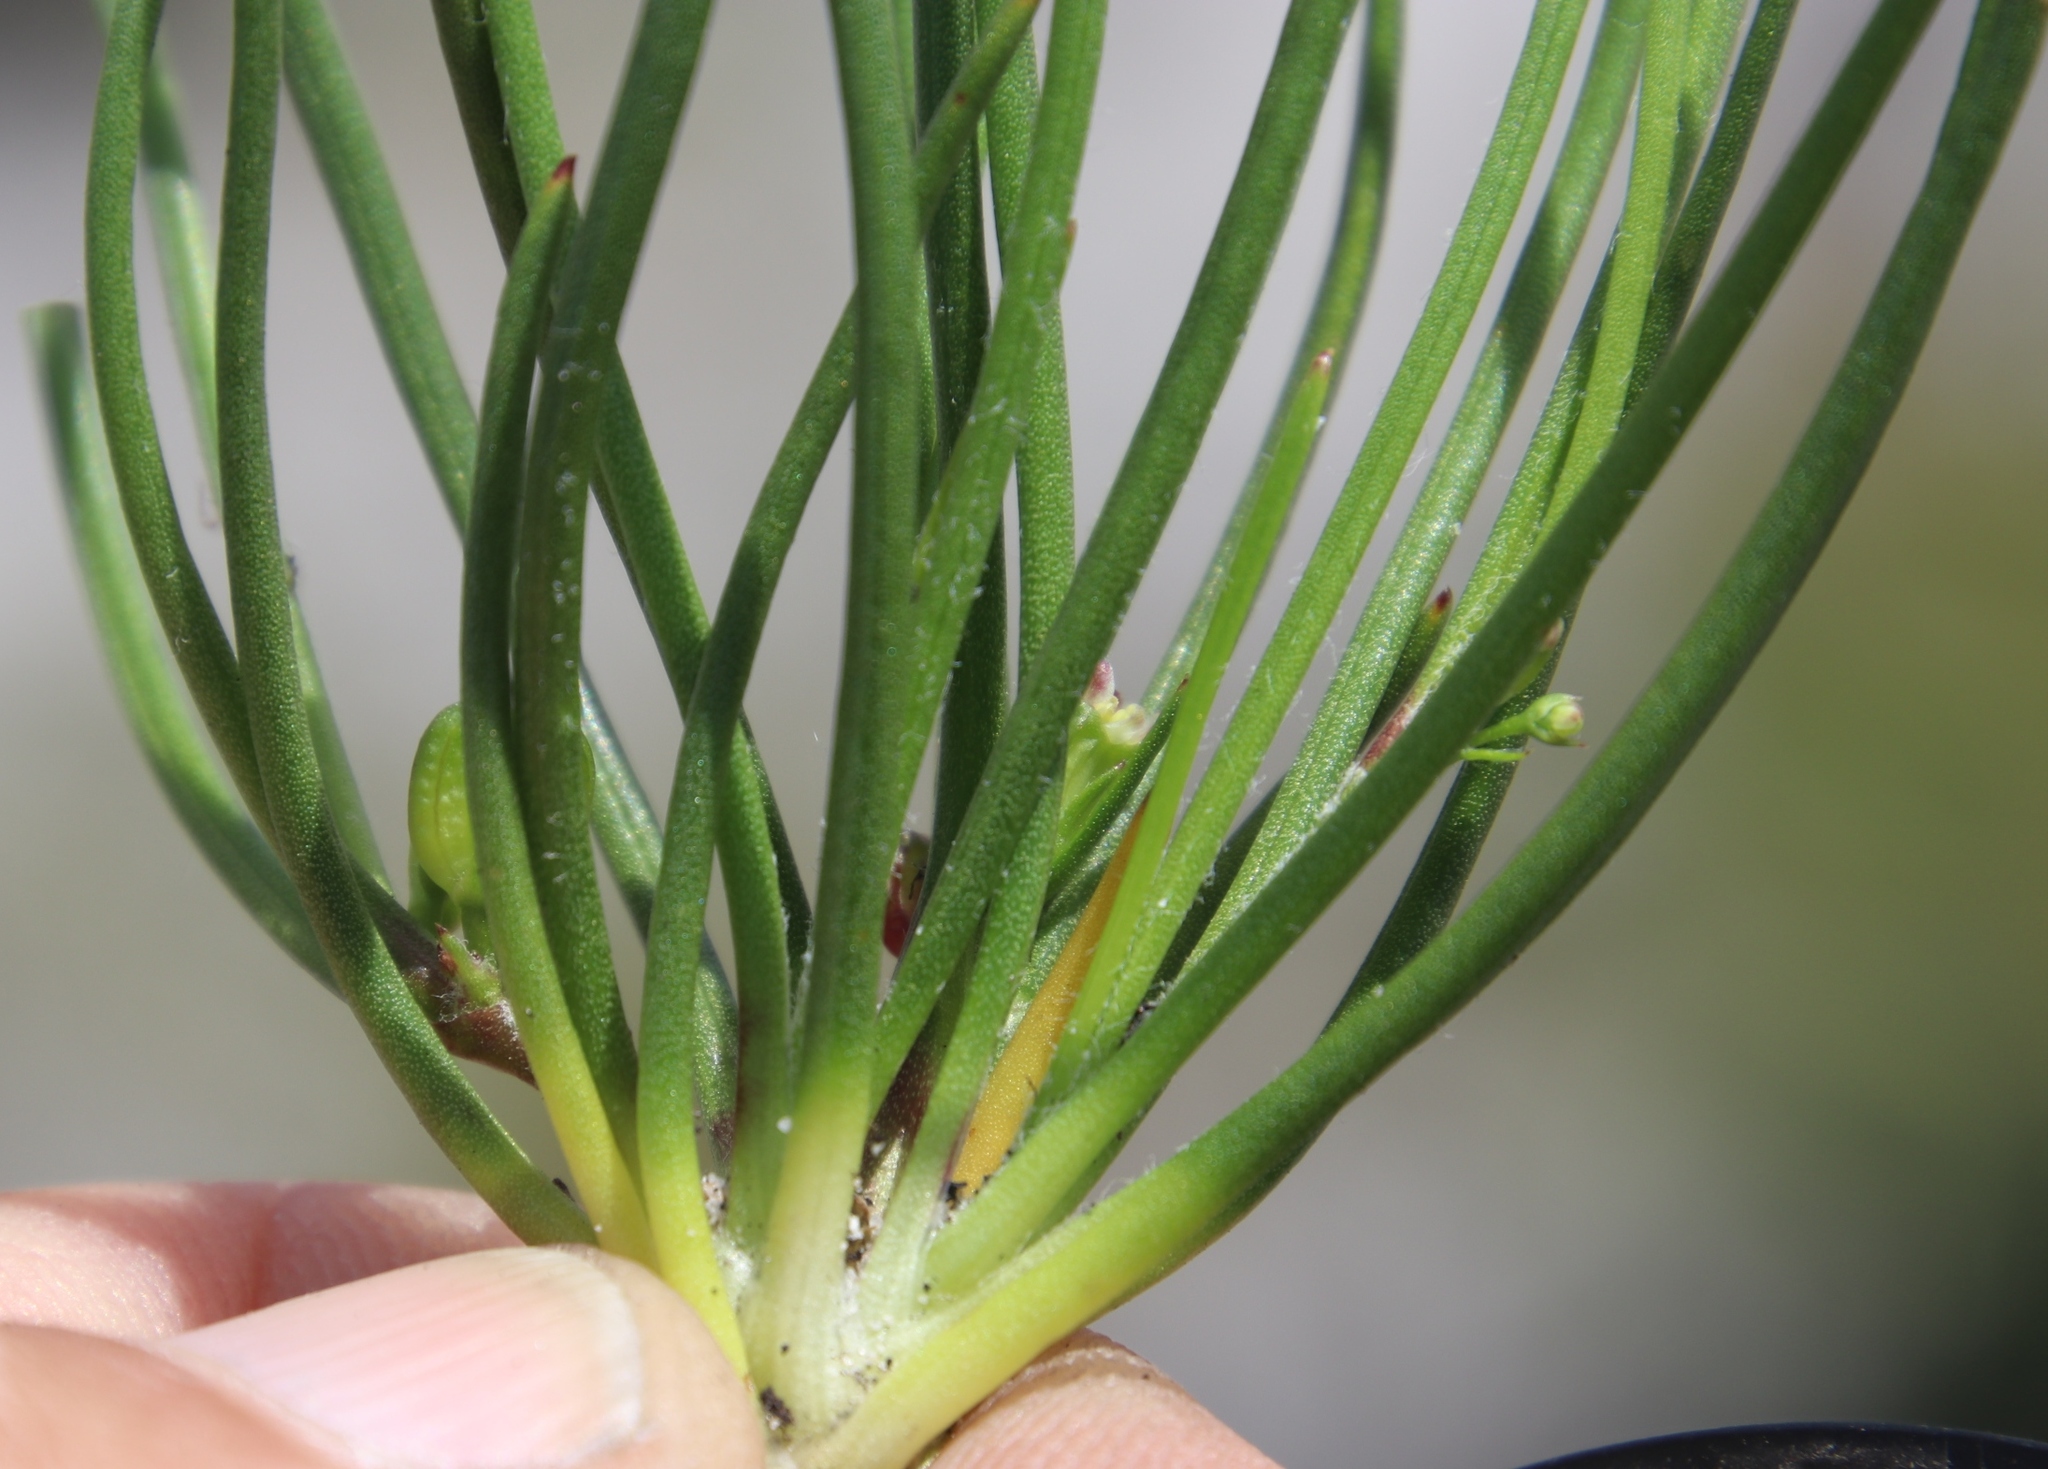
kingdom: Plantae
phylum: Tracheophyta
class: Magnoliopsida
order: Apiales
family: Apiaceae
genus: Centella
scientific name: Centella macrocarpa
